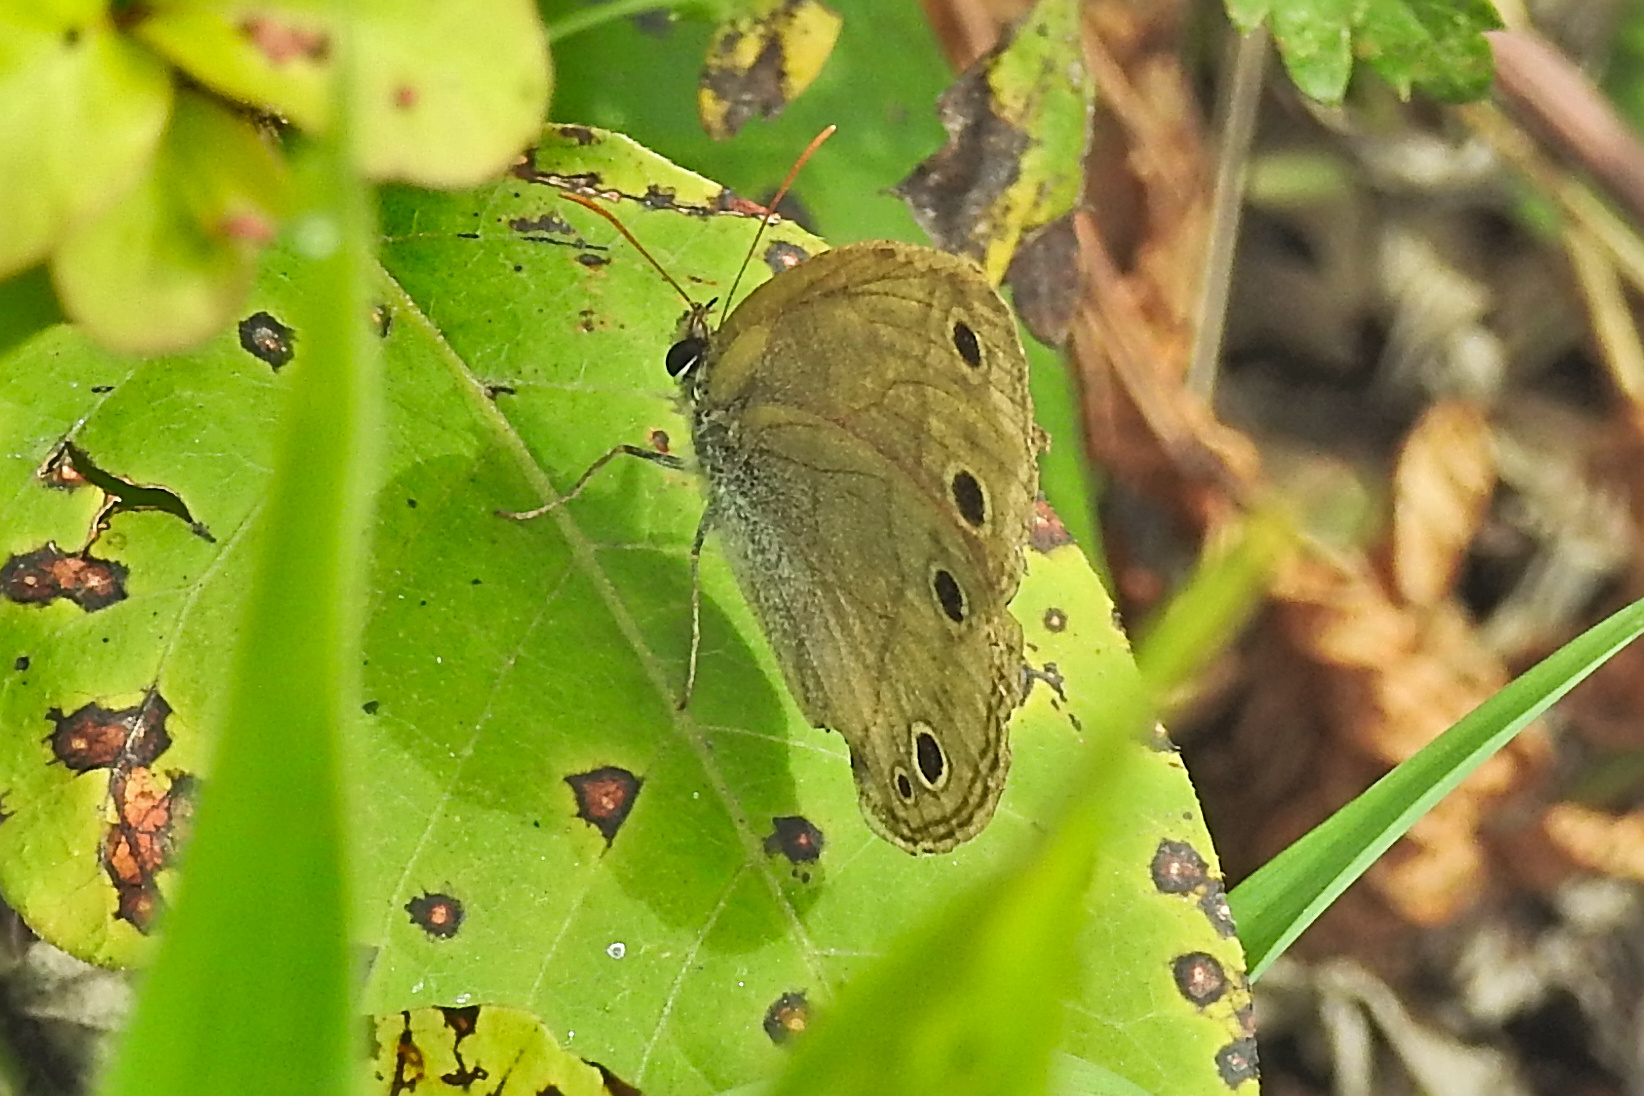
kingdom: Animalia
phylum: Arthropoda
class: Insecta
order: Lepidoptera
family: Nymphalidae
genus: Euptychia
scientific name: Euptychia cymela
